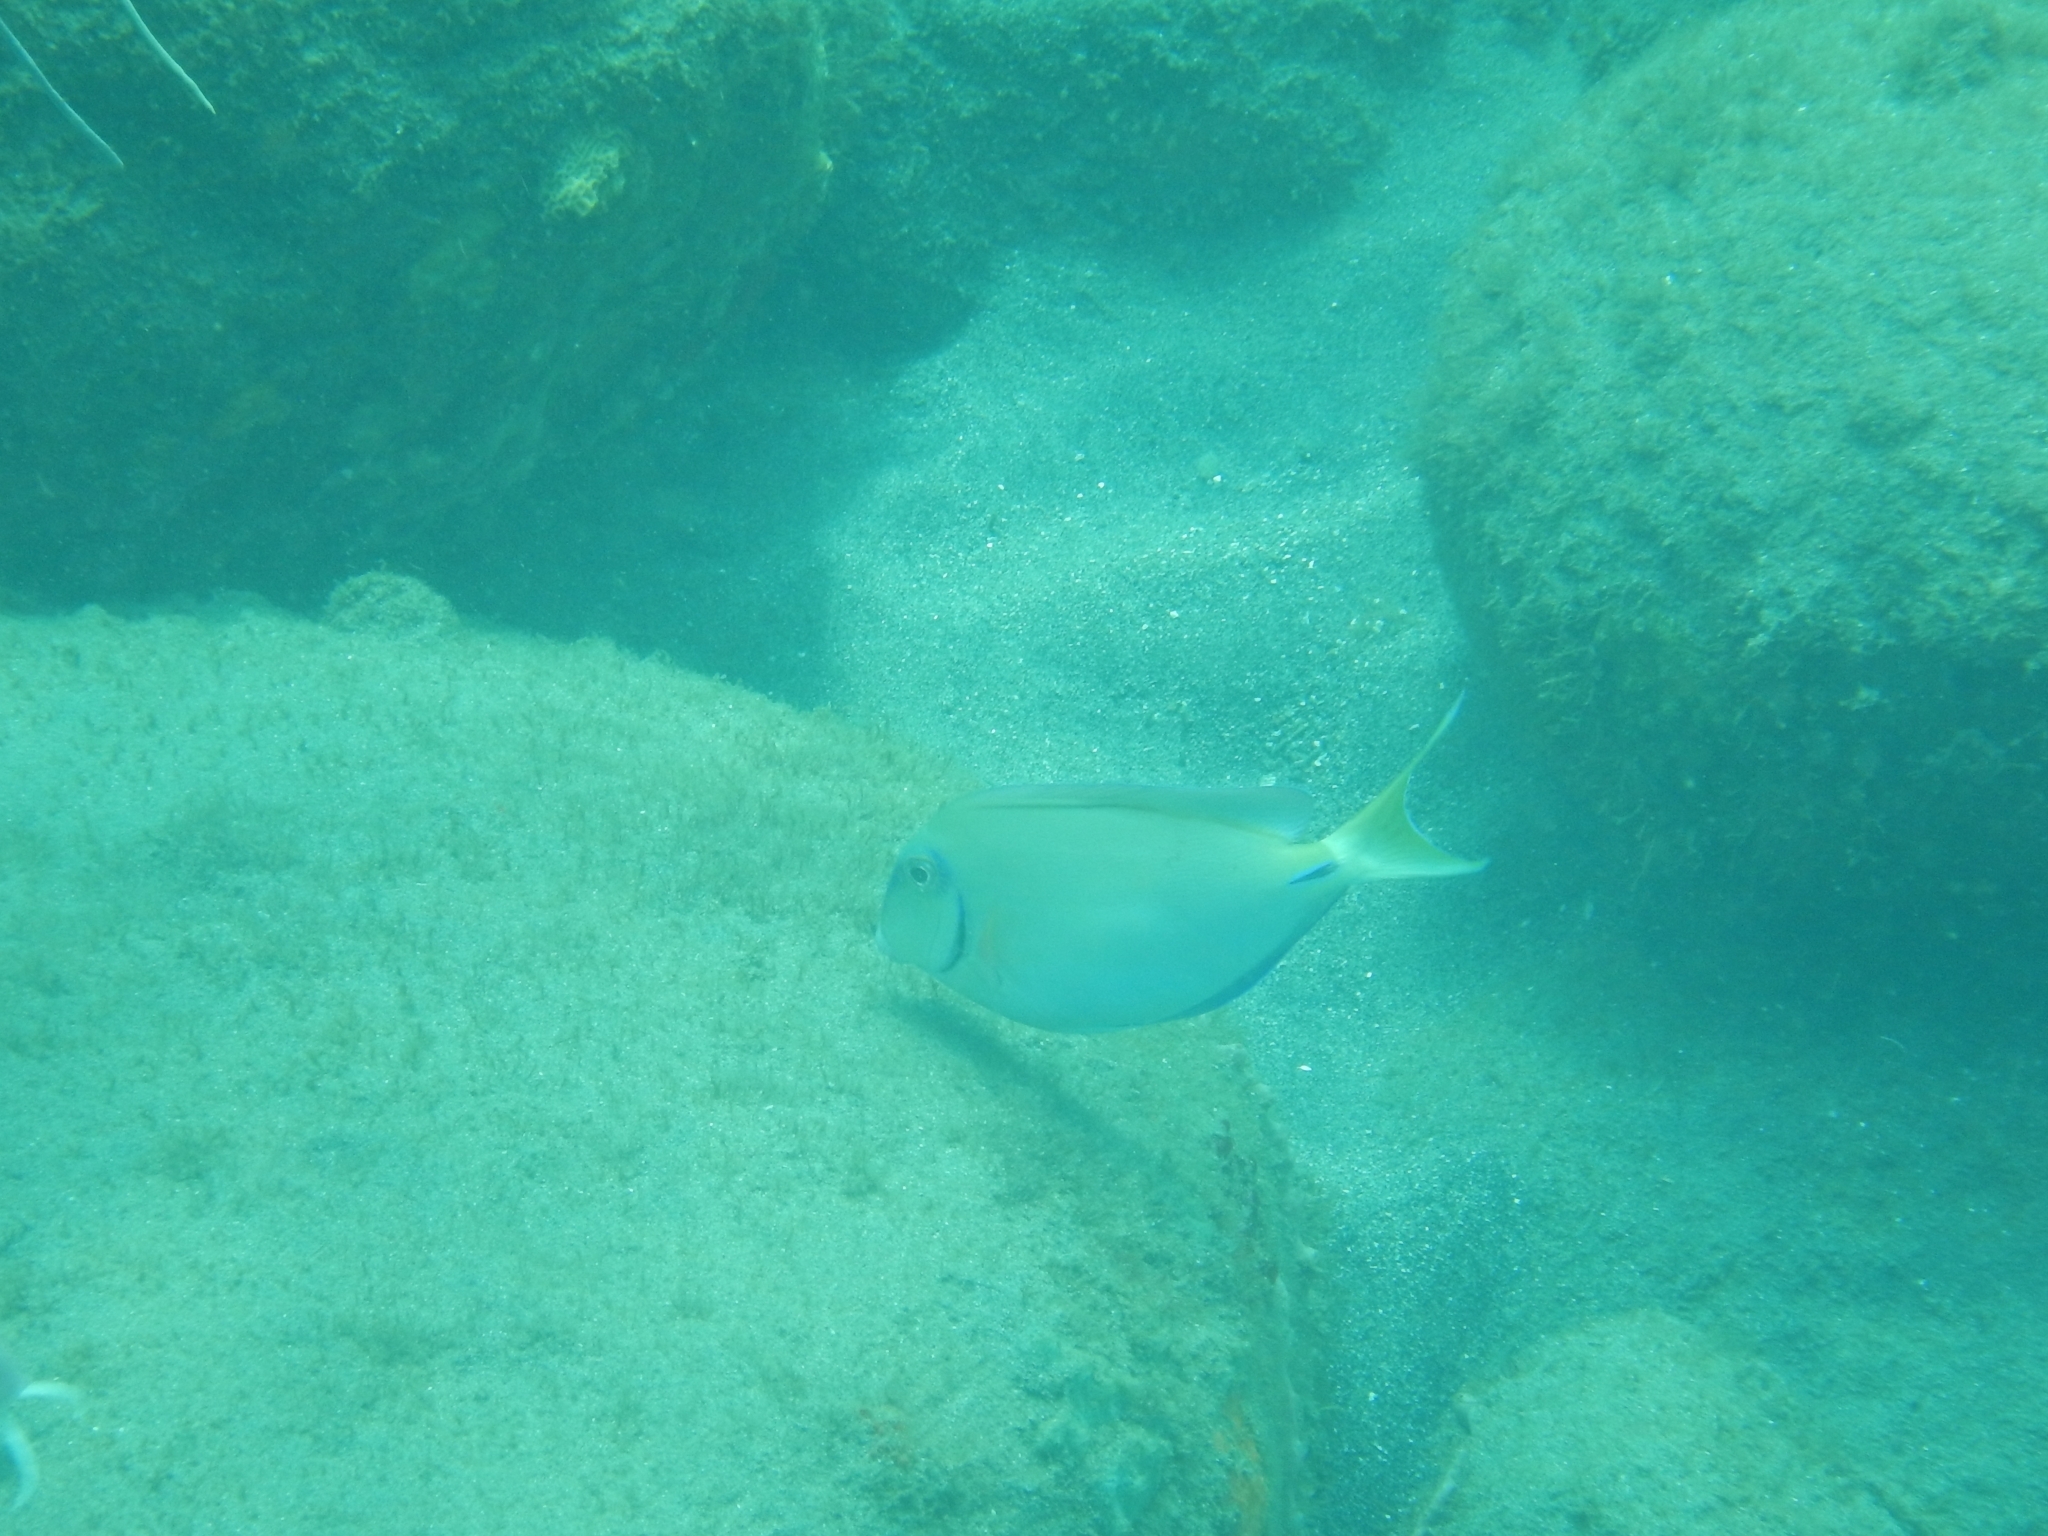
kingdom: Animalia
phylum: Chordata
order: Perciformes
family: Acanthuridae
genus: Acanthurus
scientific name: Acanthurus bahianus
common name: Ocean surgeon
